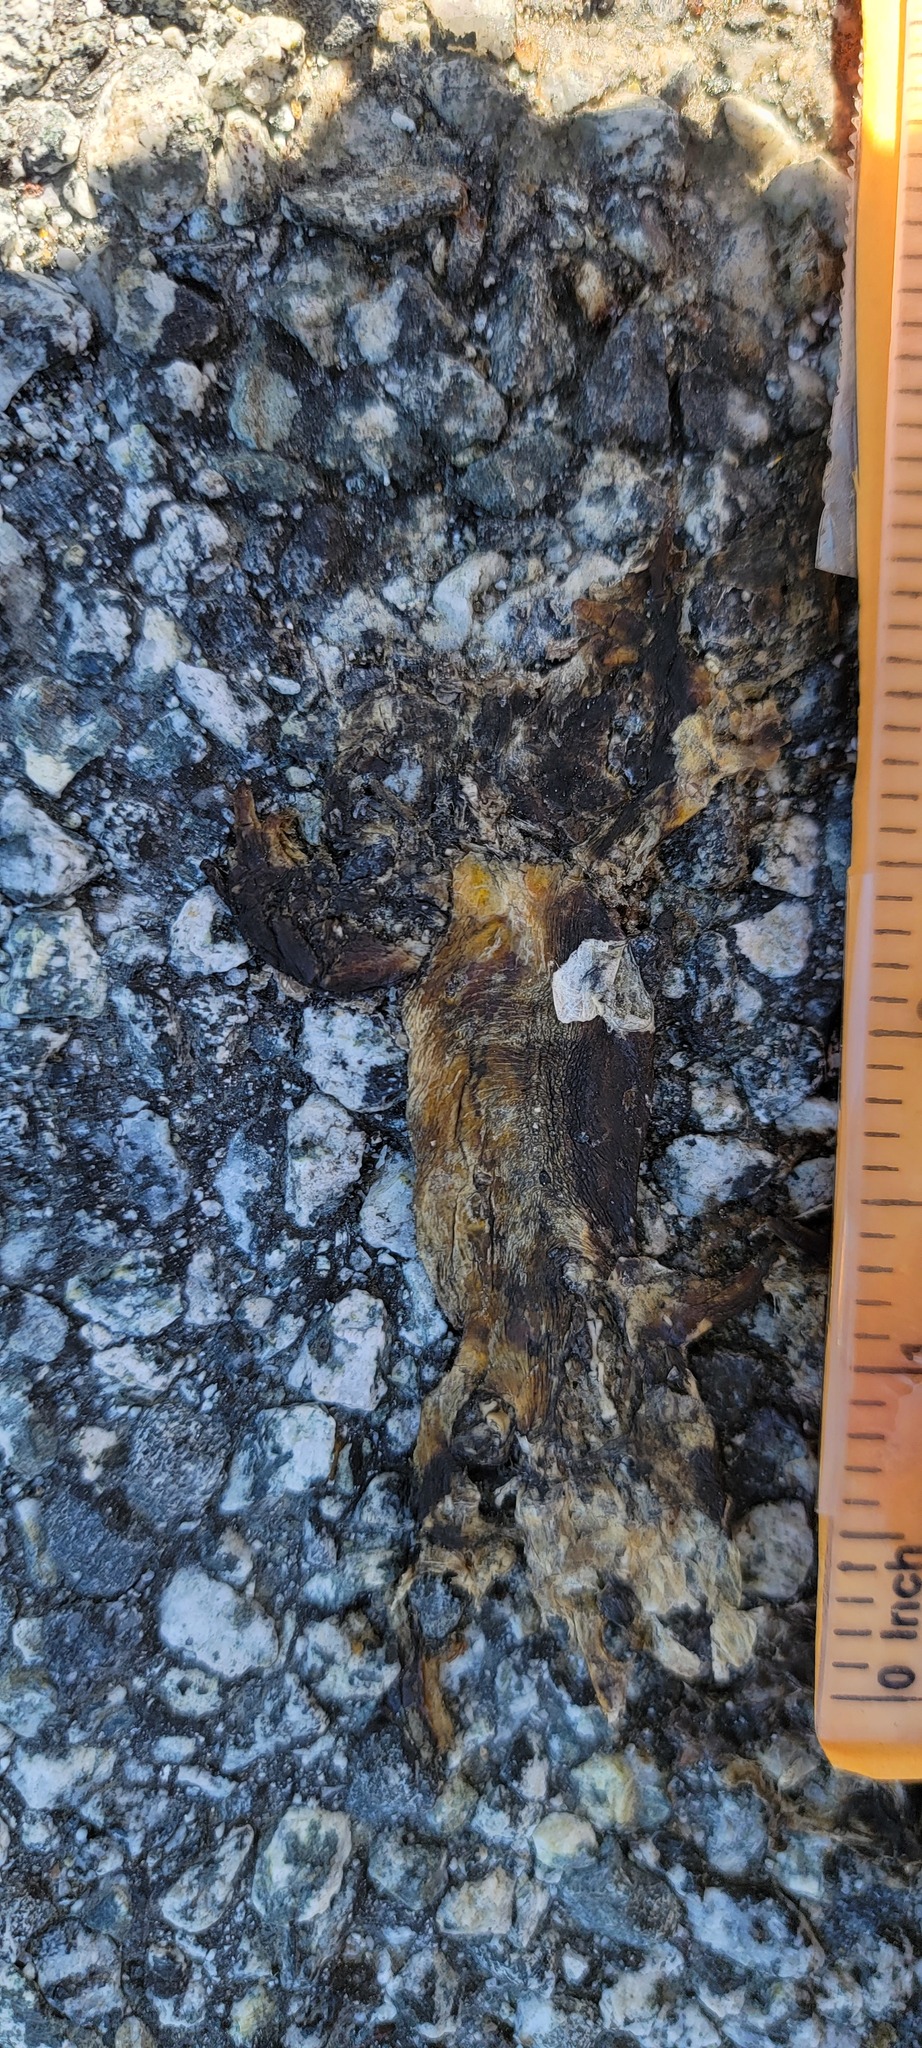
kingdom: Animalia
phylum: Chordata
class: Amphibia
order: Caudata
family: Salamandridae
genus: Taricha
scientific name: Taricha
